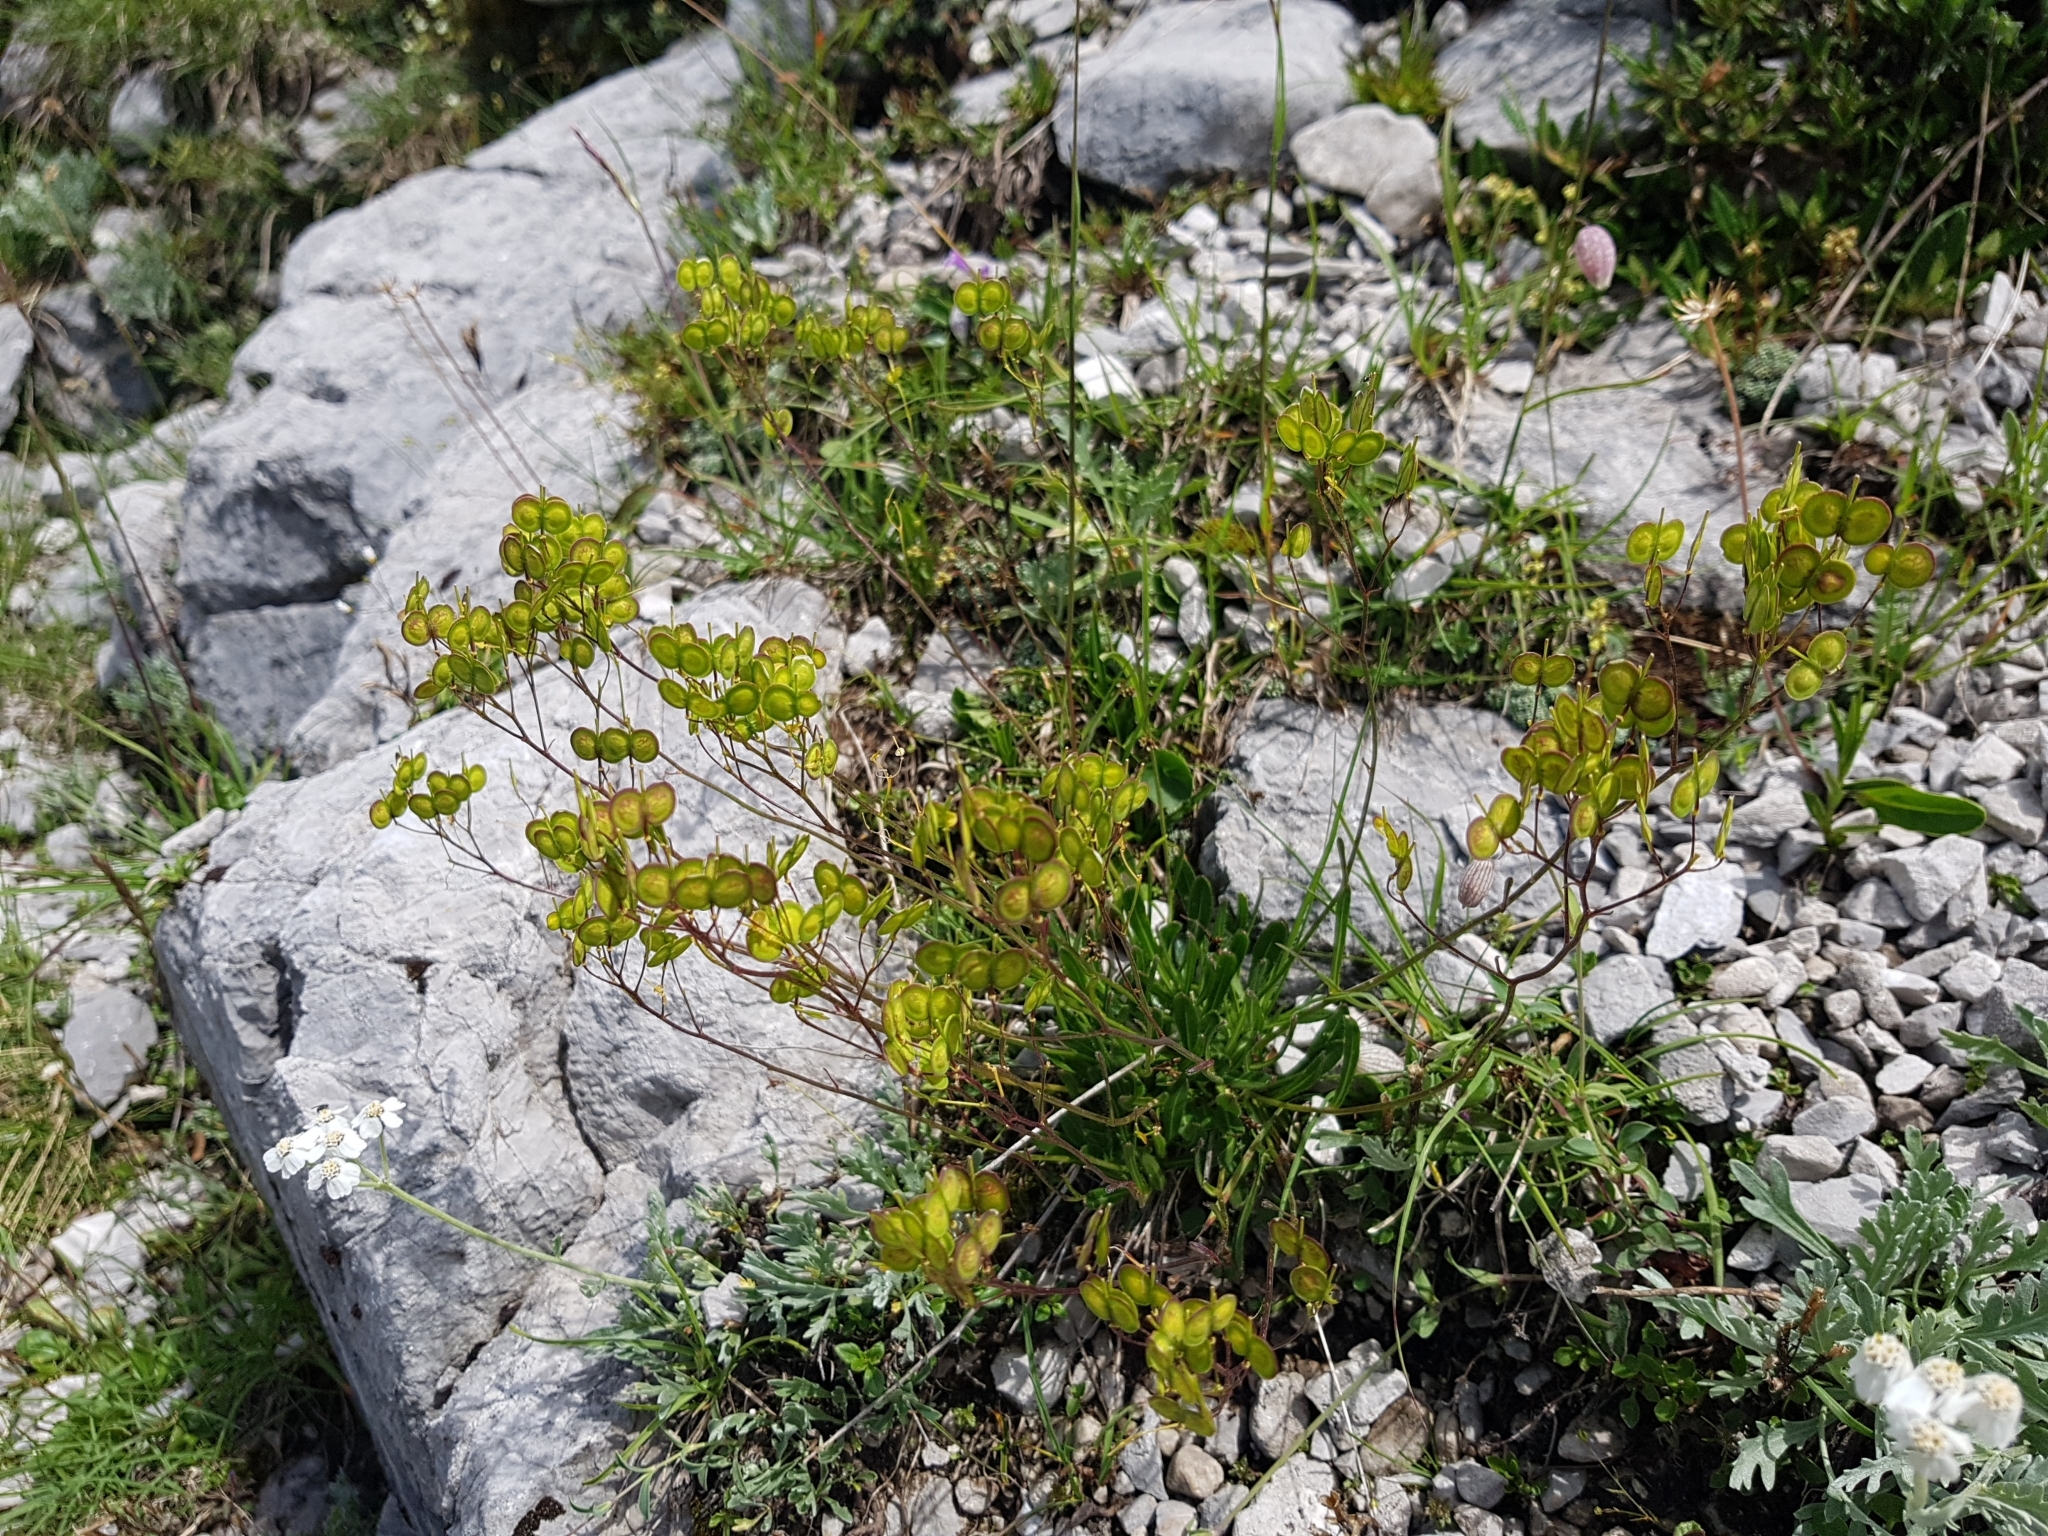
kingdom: Plantae
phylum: Tracheophyta
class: Magnoliopsida
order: Brassicales
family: Brassicaceae
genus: Biscutella
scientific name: Biscutella laevigata
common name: Buckler mustard
